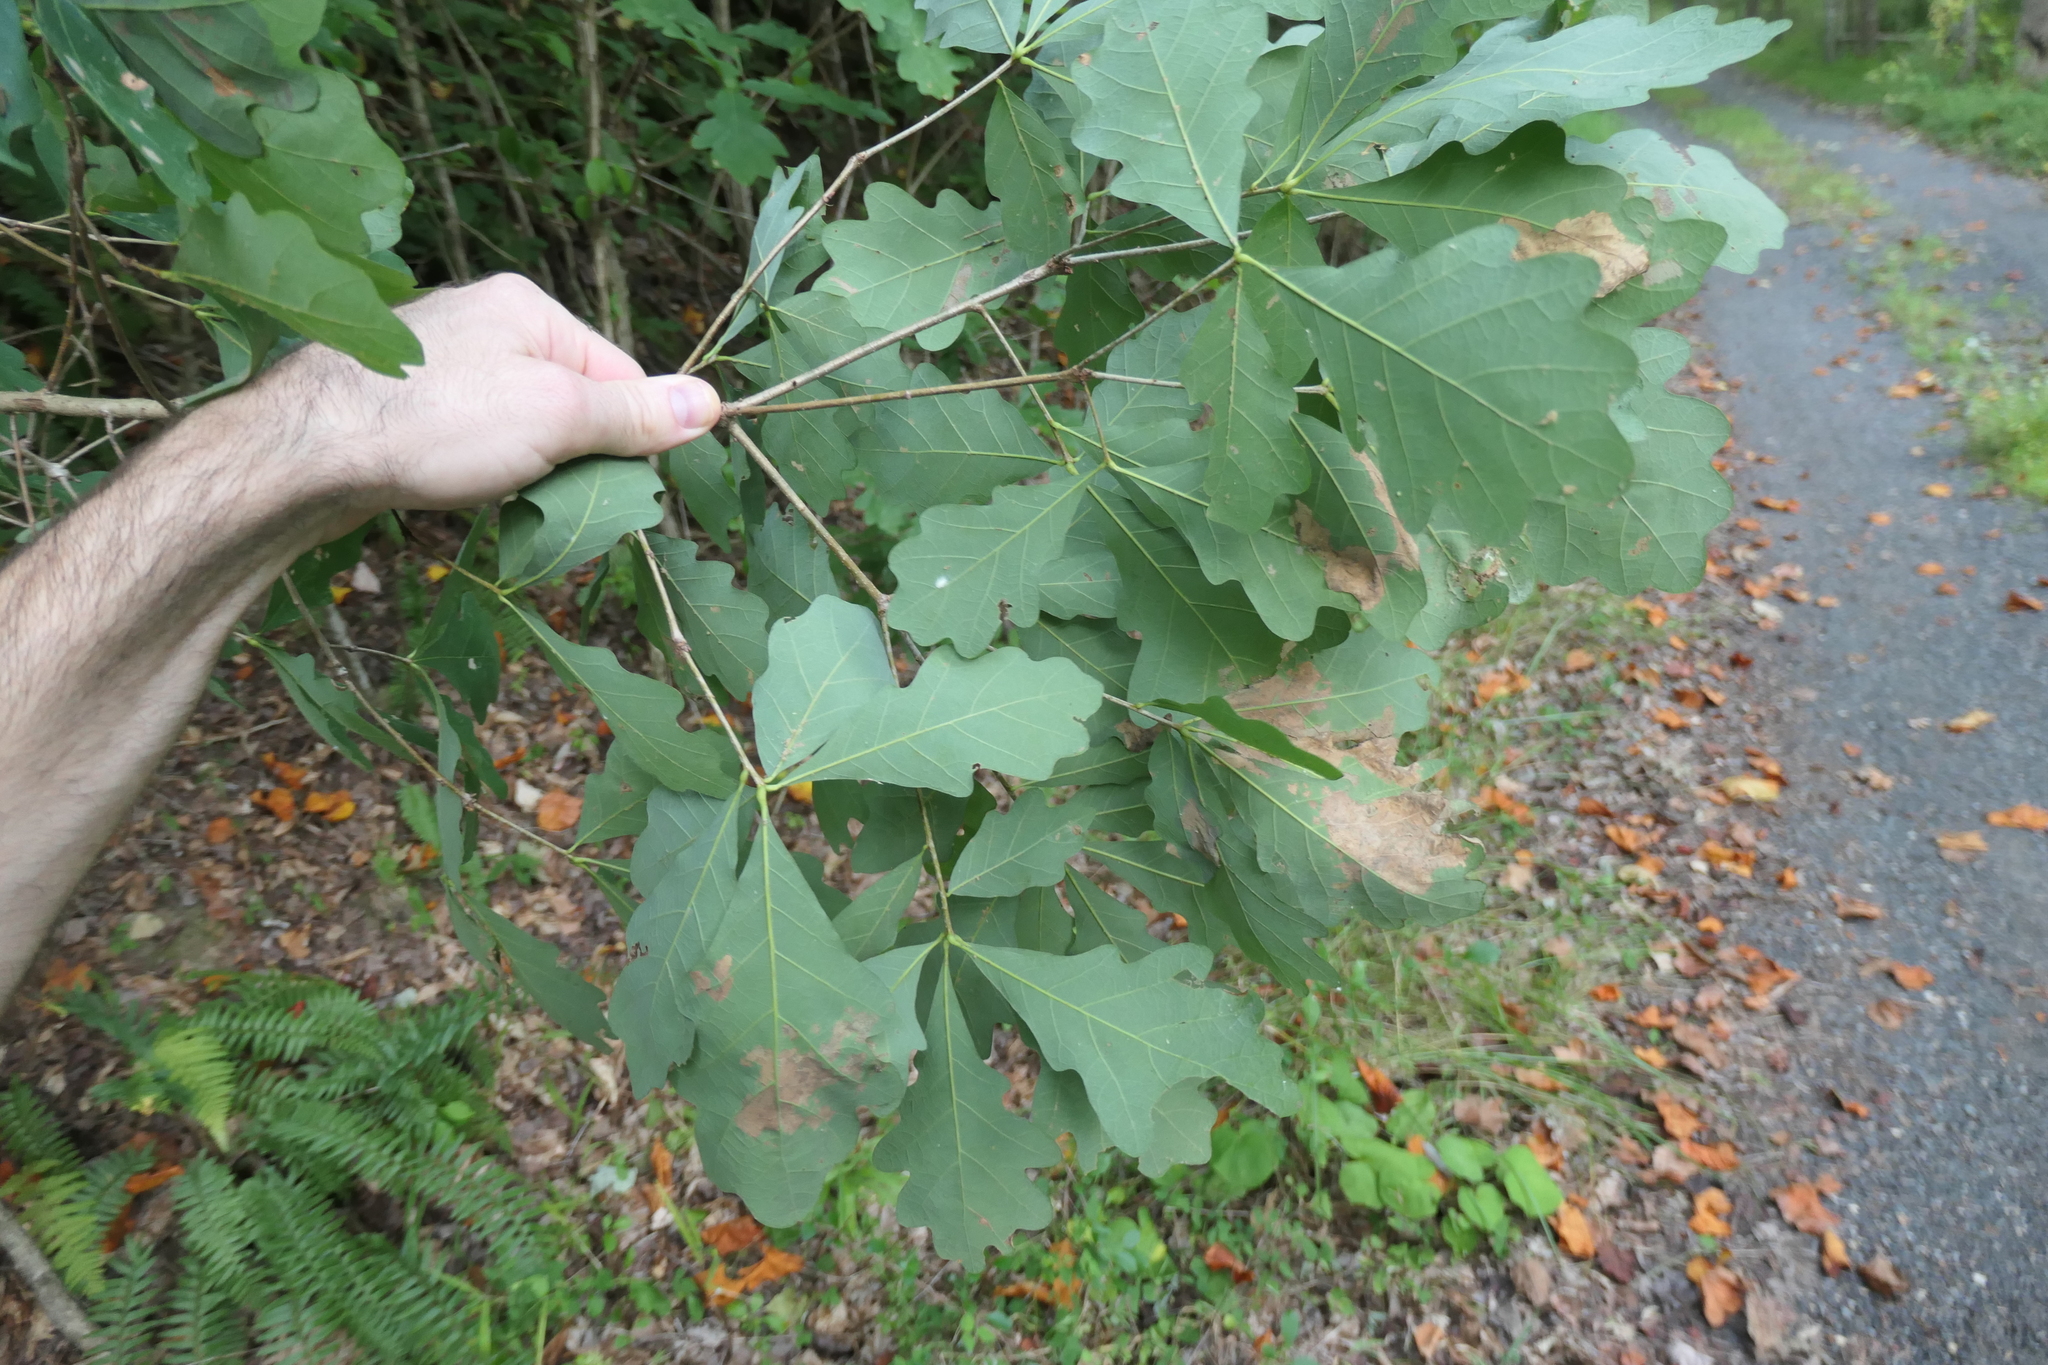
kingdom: Animalia
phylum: Arthropoda
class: Insecta
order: Hemiptera
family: Cicadellidae
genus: Jikradia
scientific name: Jikradia olitoria
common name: Coppery leafhopper
